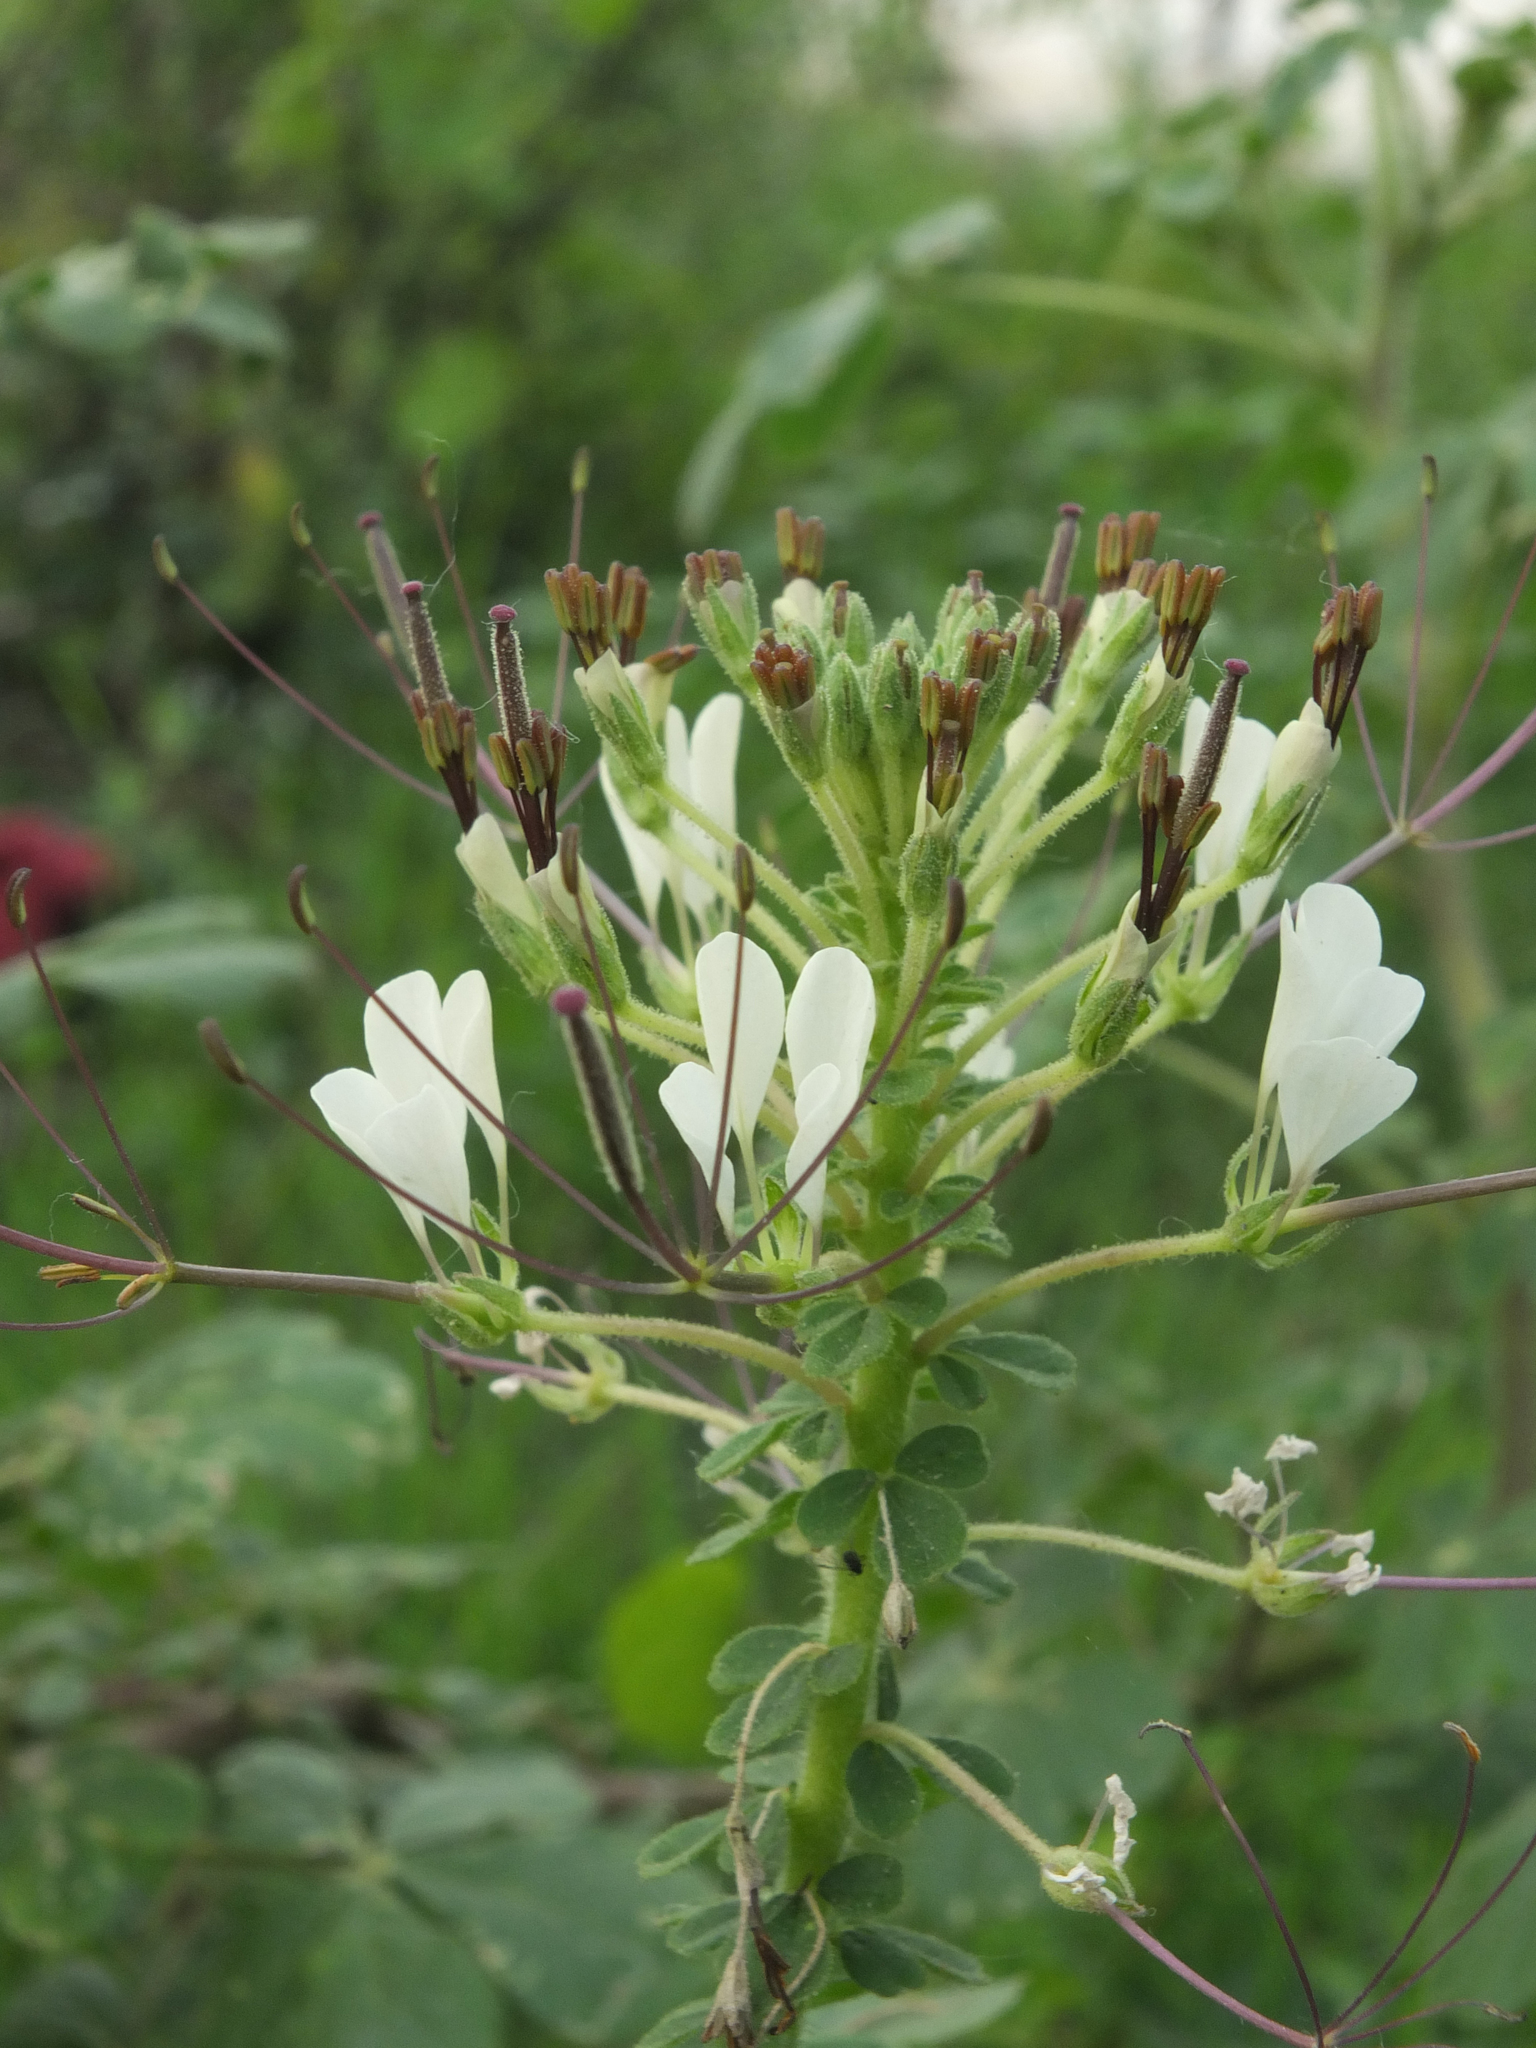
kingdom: Plantae
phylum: Tracheophyta
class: Magnoliopsida
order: Brassicales
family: Cleomaceae
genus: Gynandropsis
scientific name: Gynandropsis gynandra
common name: Spiderwisp
